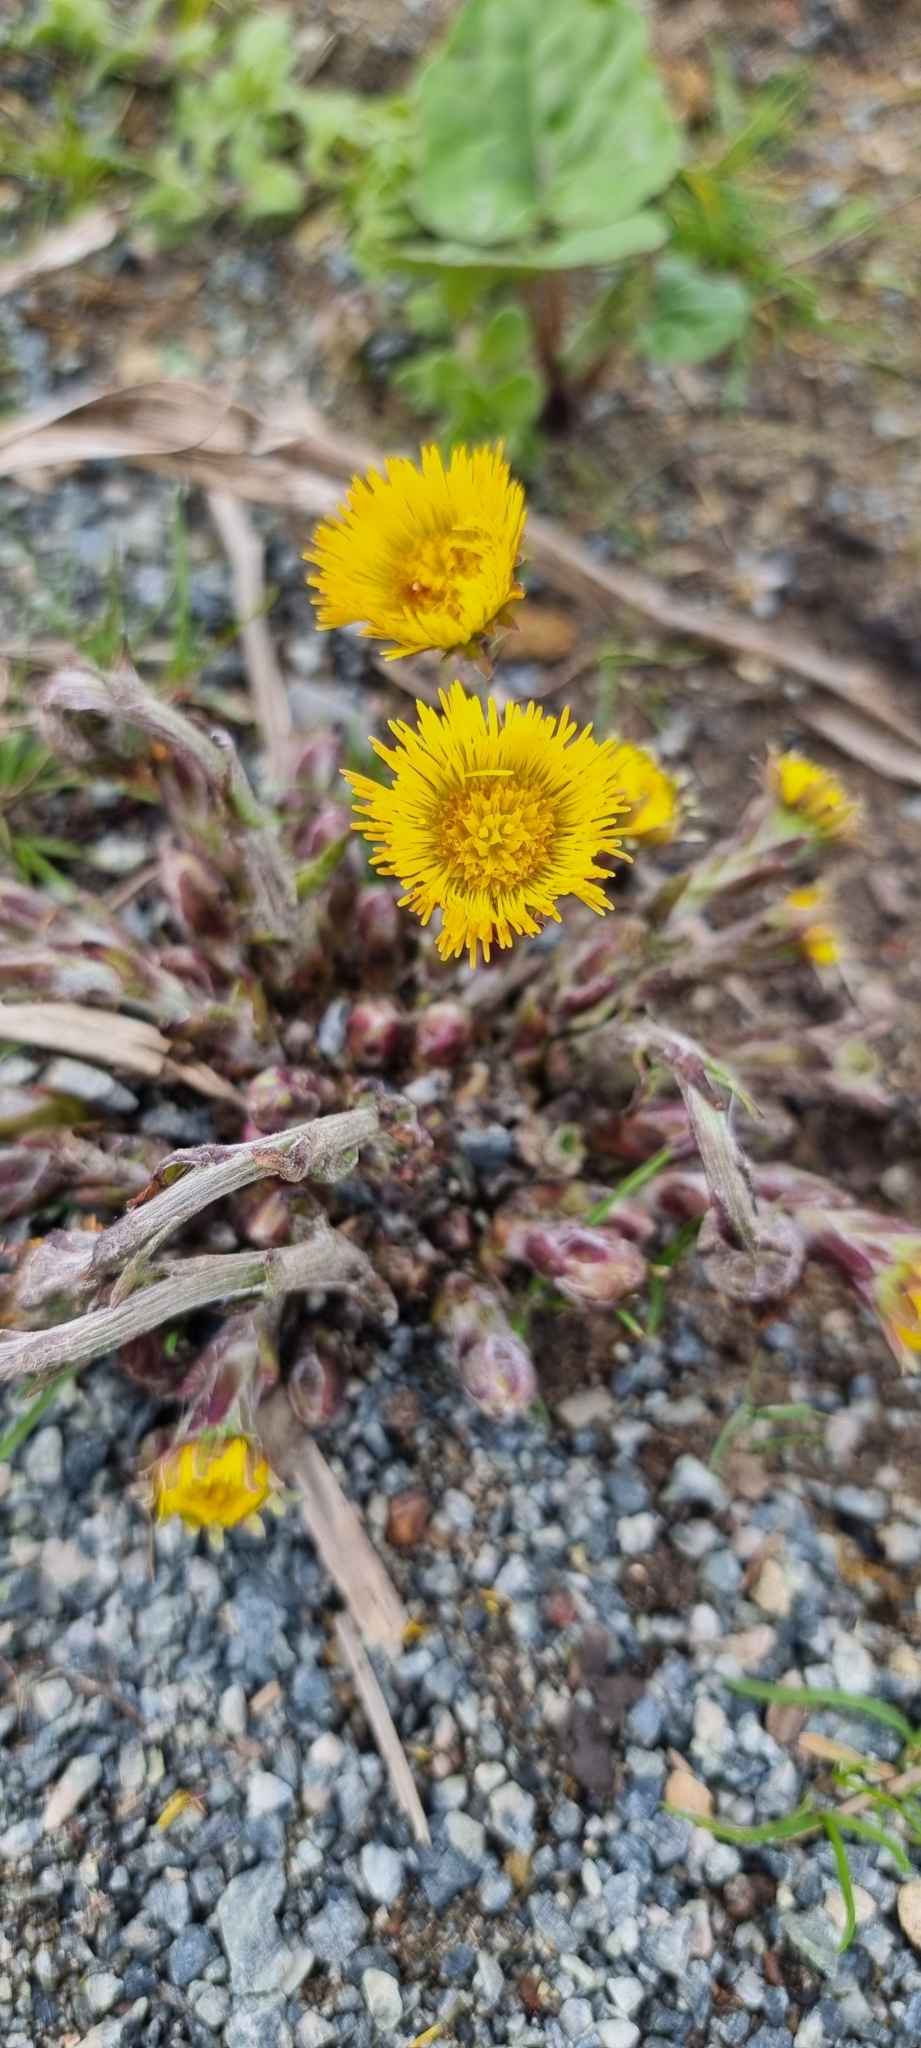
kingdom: Plantae
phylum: Tracheophyta
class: Magnoliopsida
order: Asterales
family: Asteraceae
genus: Tussilago
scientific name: Tussilago farfara
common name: Coltsfoot
